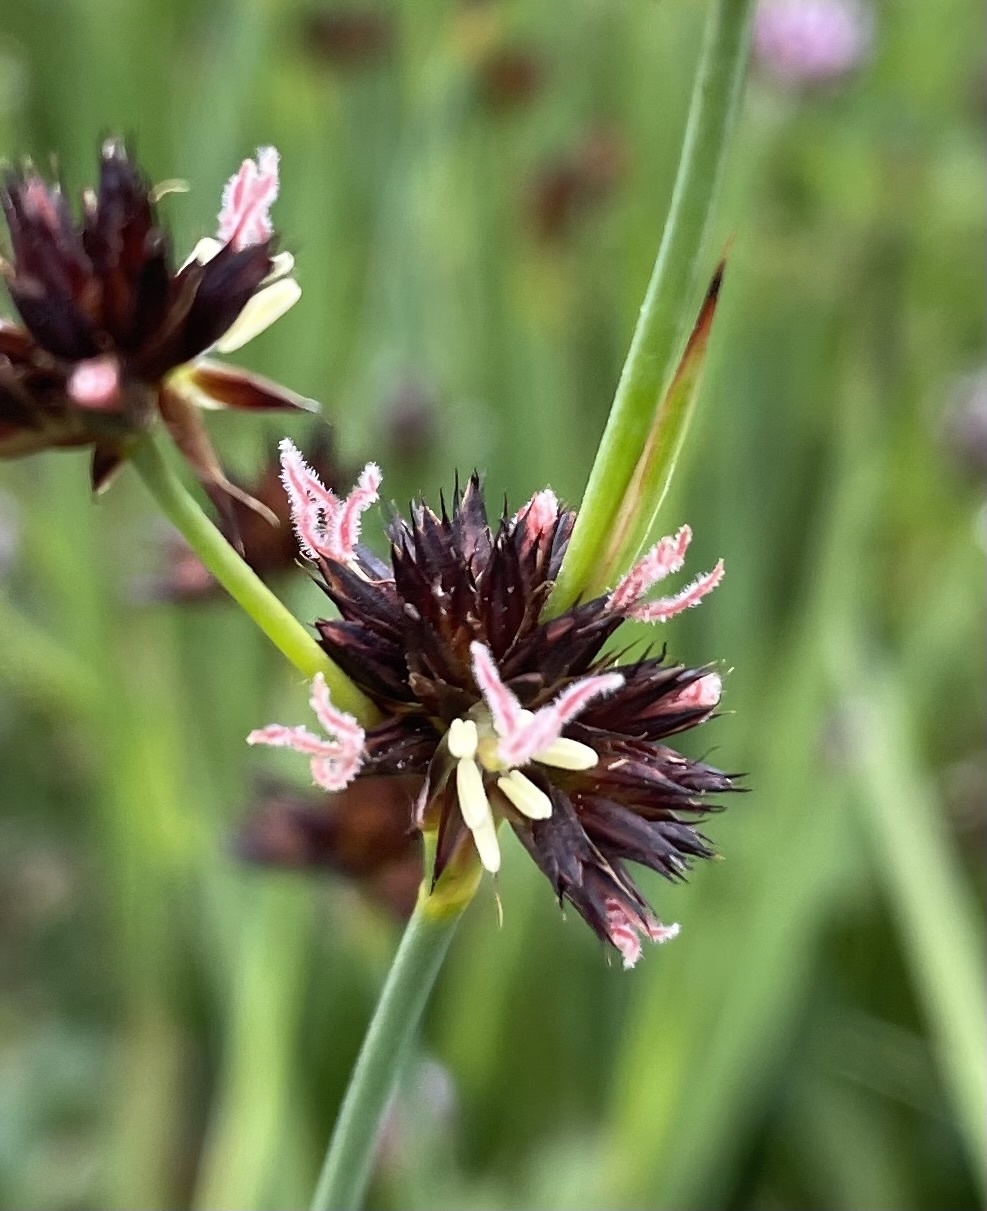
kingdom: Plantae
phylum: Tracheophyta
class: Liliopsida
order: Poales
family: Juncaceae
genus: Juncus
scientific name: Juncus phaeocephalus
